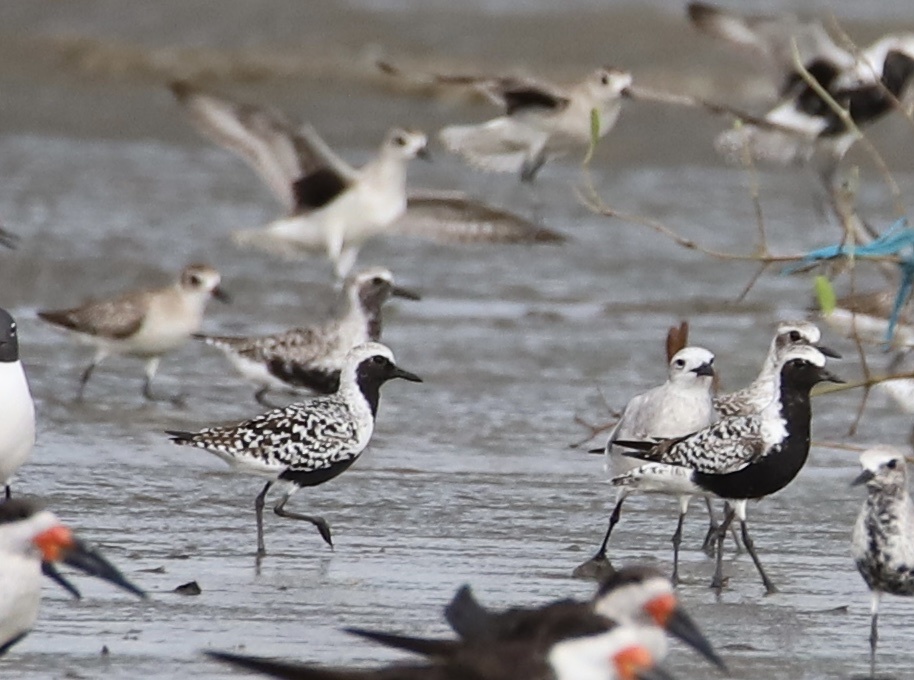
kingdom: Animalia
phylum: Chordata
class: Aves
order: Charadriiformes
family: Charadriidae
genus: Pluvialis
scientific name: Pluvialis squatarola
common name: Grey plover
